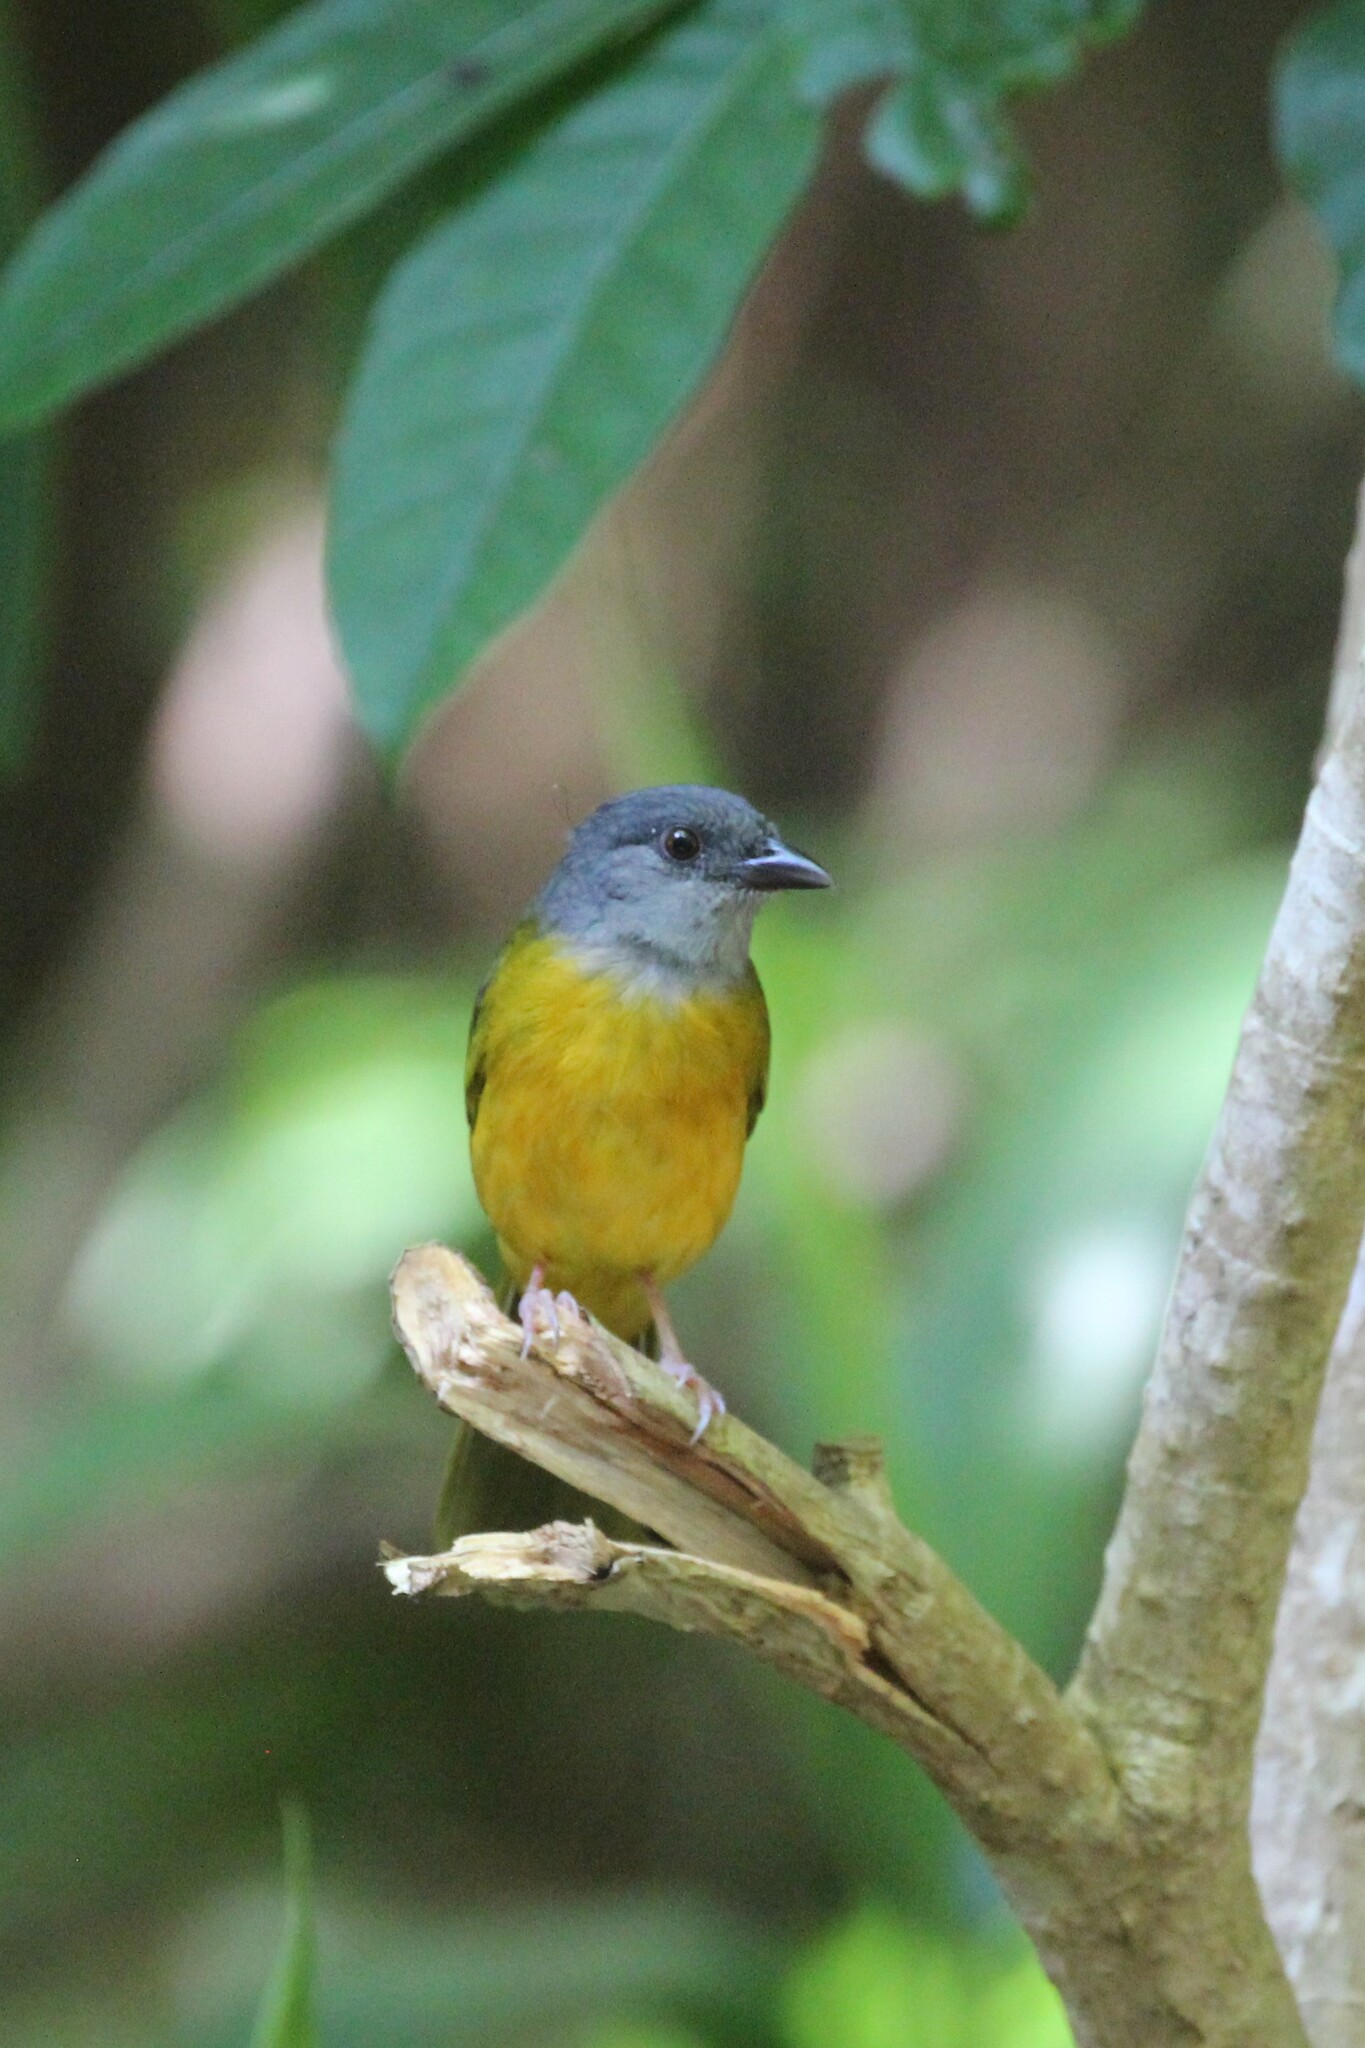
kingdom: Animalia
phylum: Chordata
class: Aves
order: Passeriformes
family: Thraupidae
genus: Eucometis
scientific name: Eucometis penicillata
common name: Grey-headed tanager
